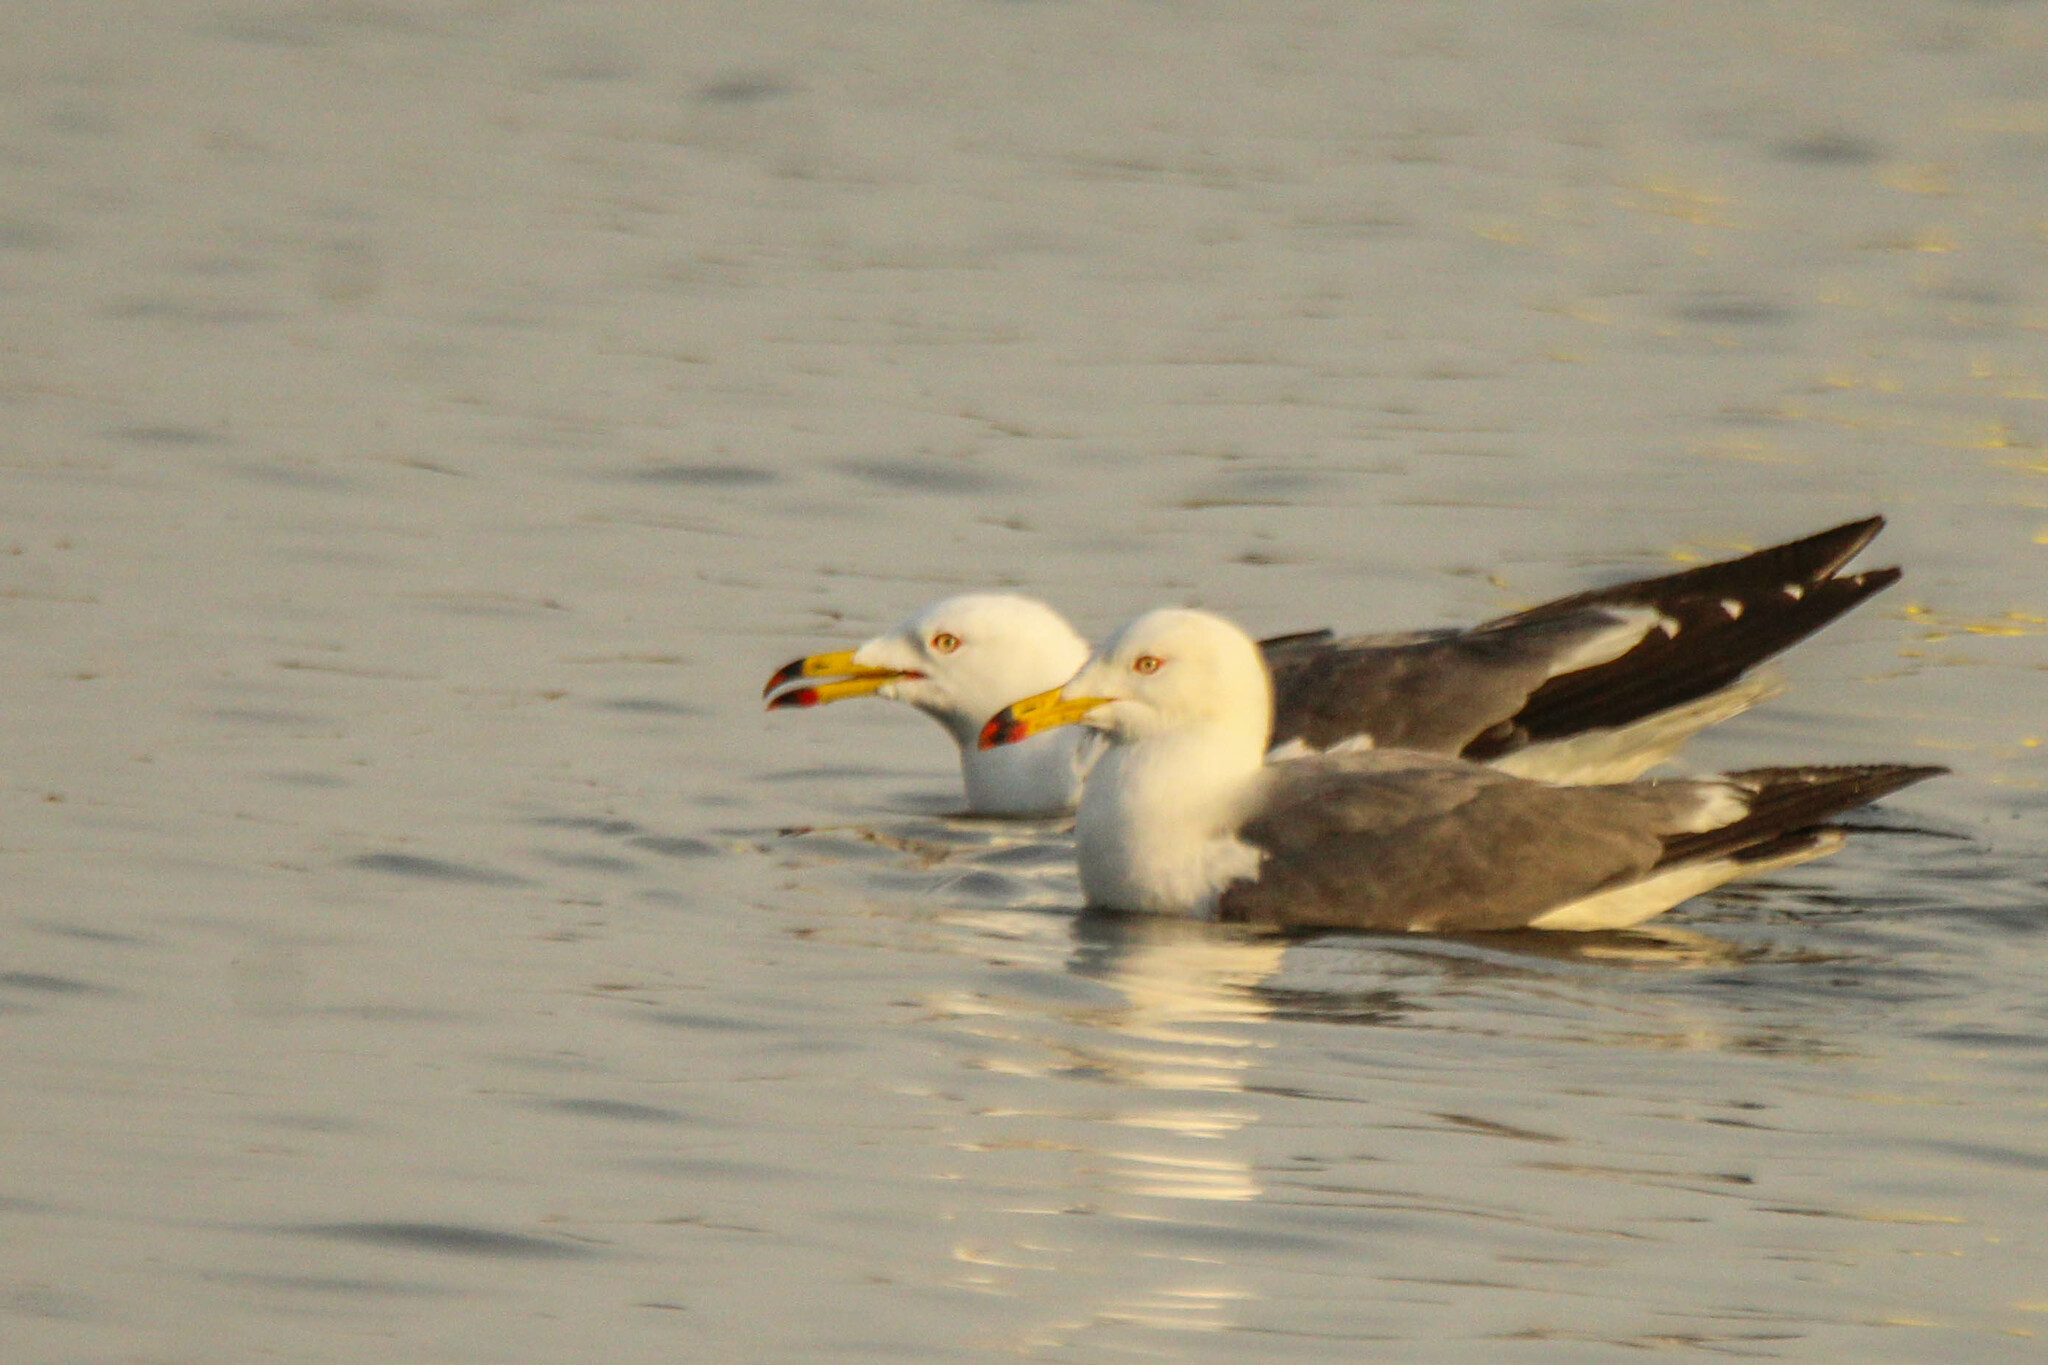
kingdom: Animalia
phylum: Chordata
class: Aves
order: Charadriiformes
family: Laridae
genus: Larus
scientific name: Larus crassirostris
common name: Black-tailed gull
